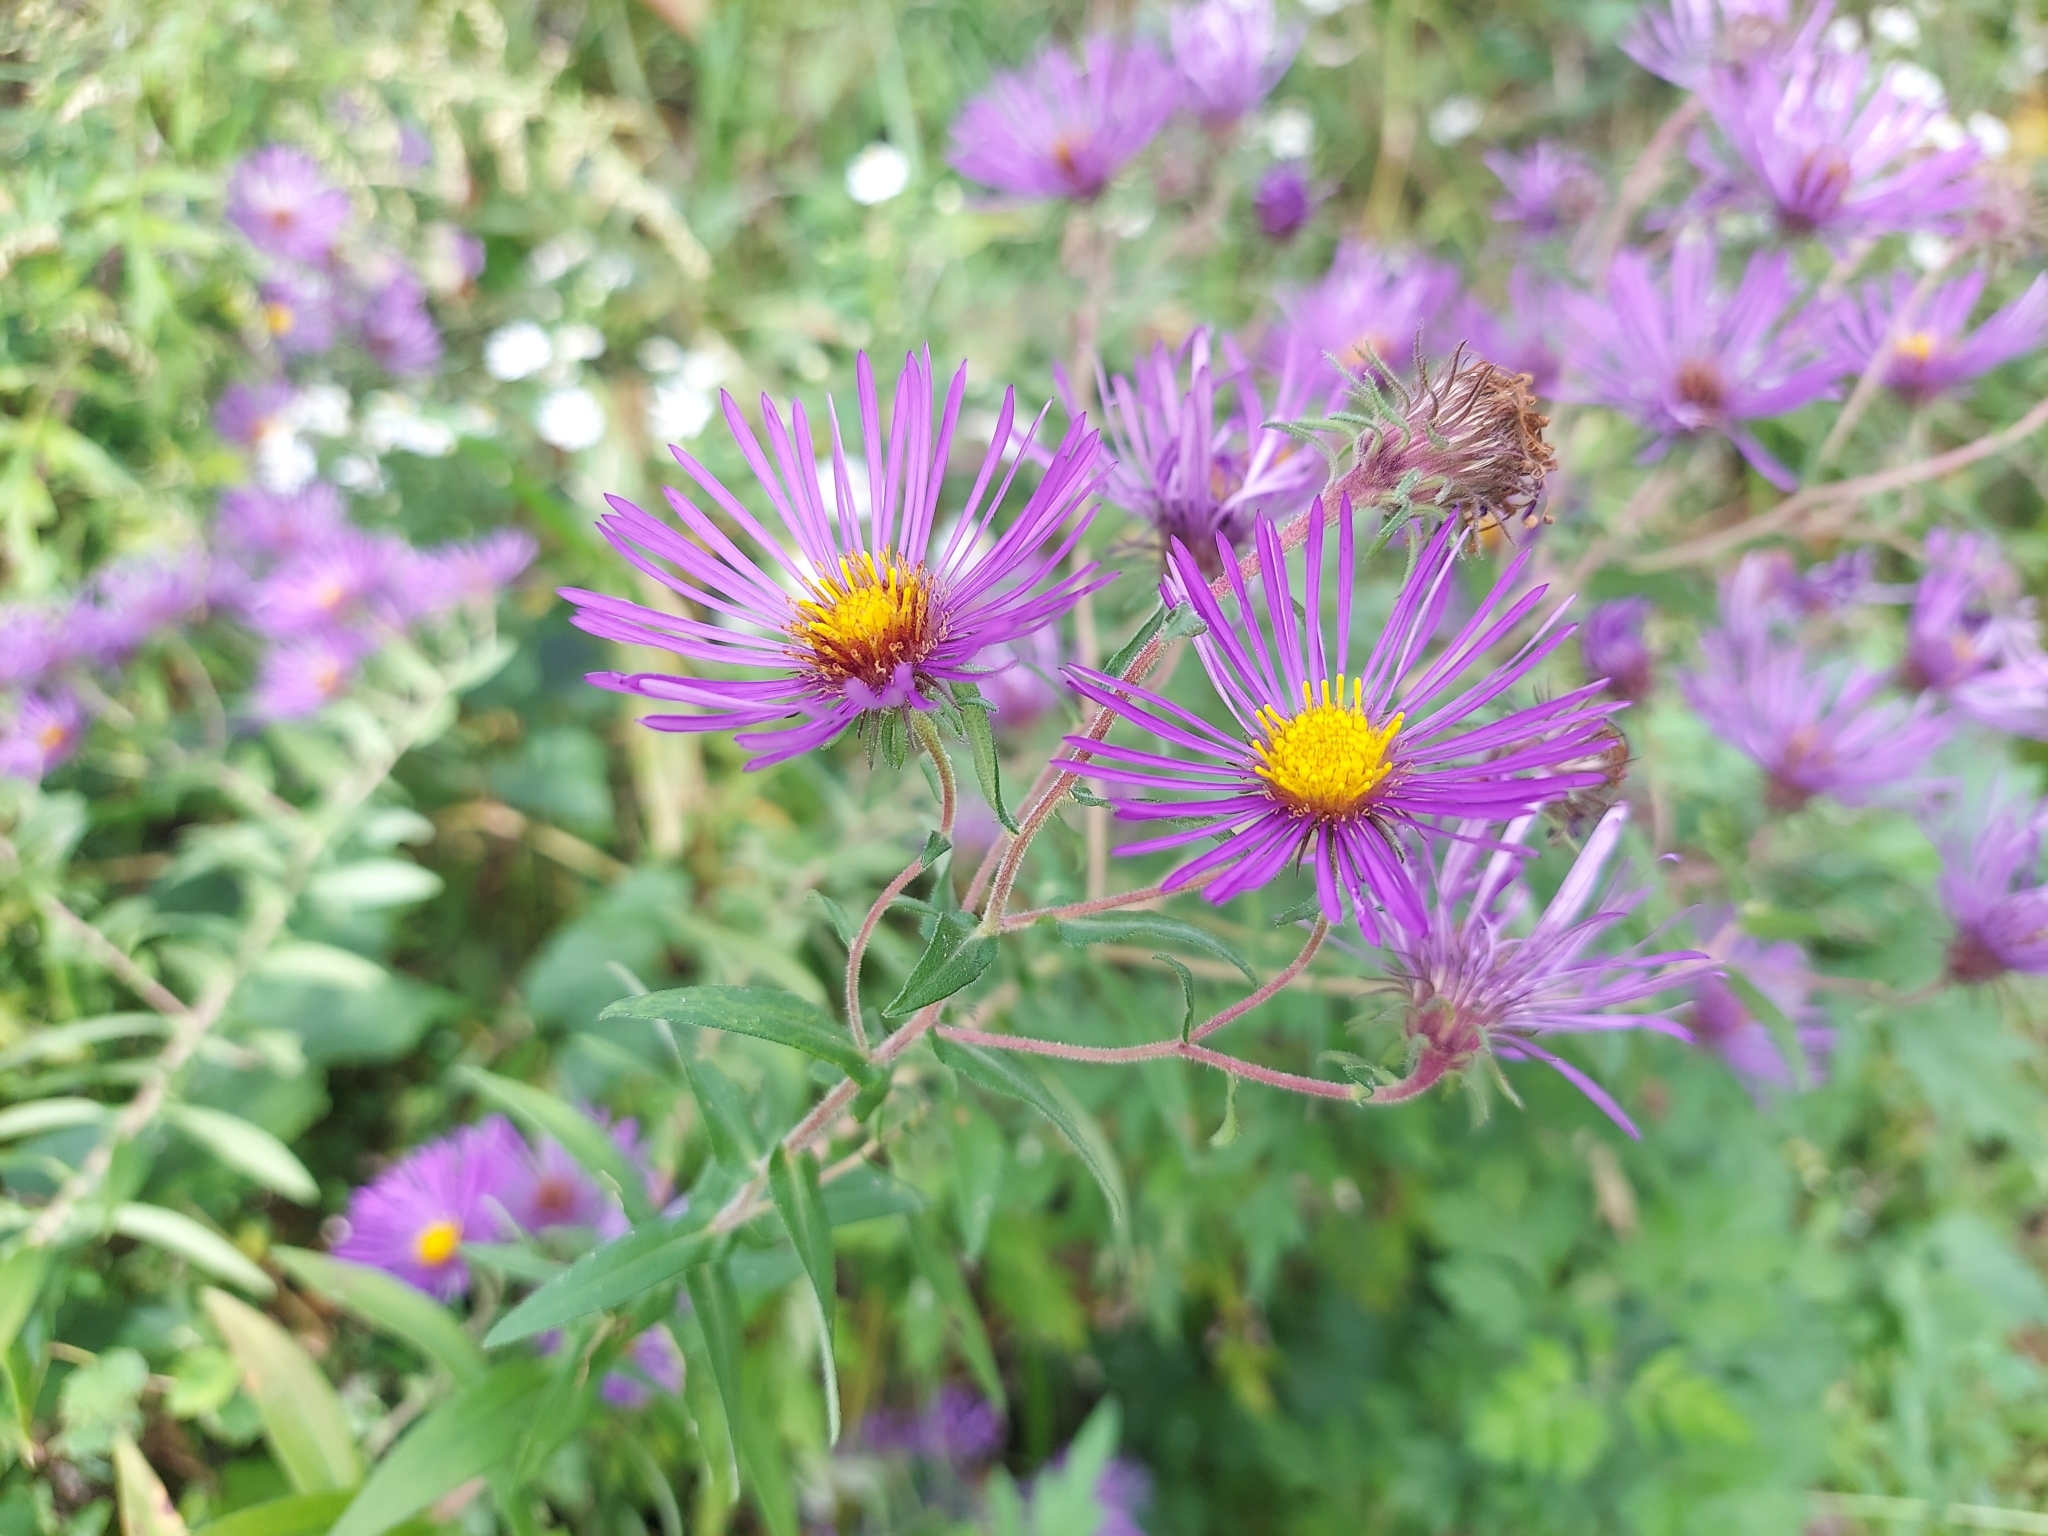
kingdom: Plantae
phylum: Tracheophyta
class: Magnoliopsida
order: Asterales
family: Asteraceae
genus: Symphyotrichum
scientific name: Symphyotrichum novae-angliae
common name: Michaelmas daisy
